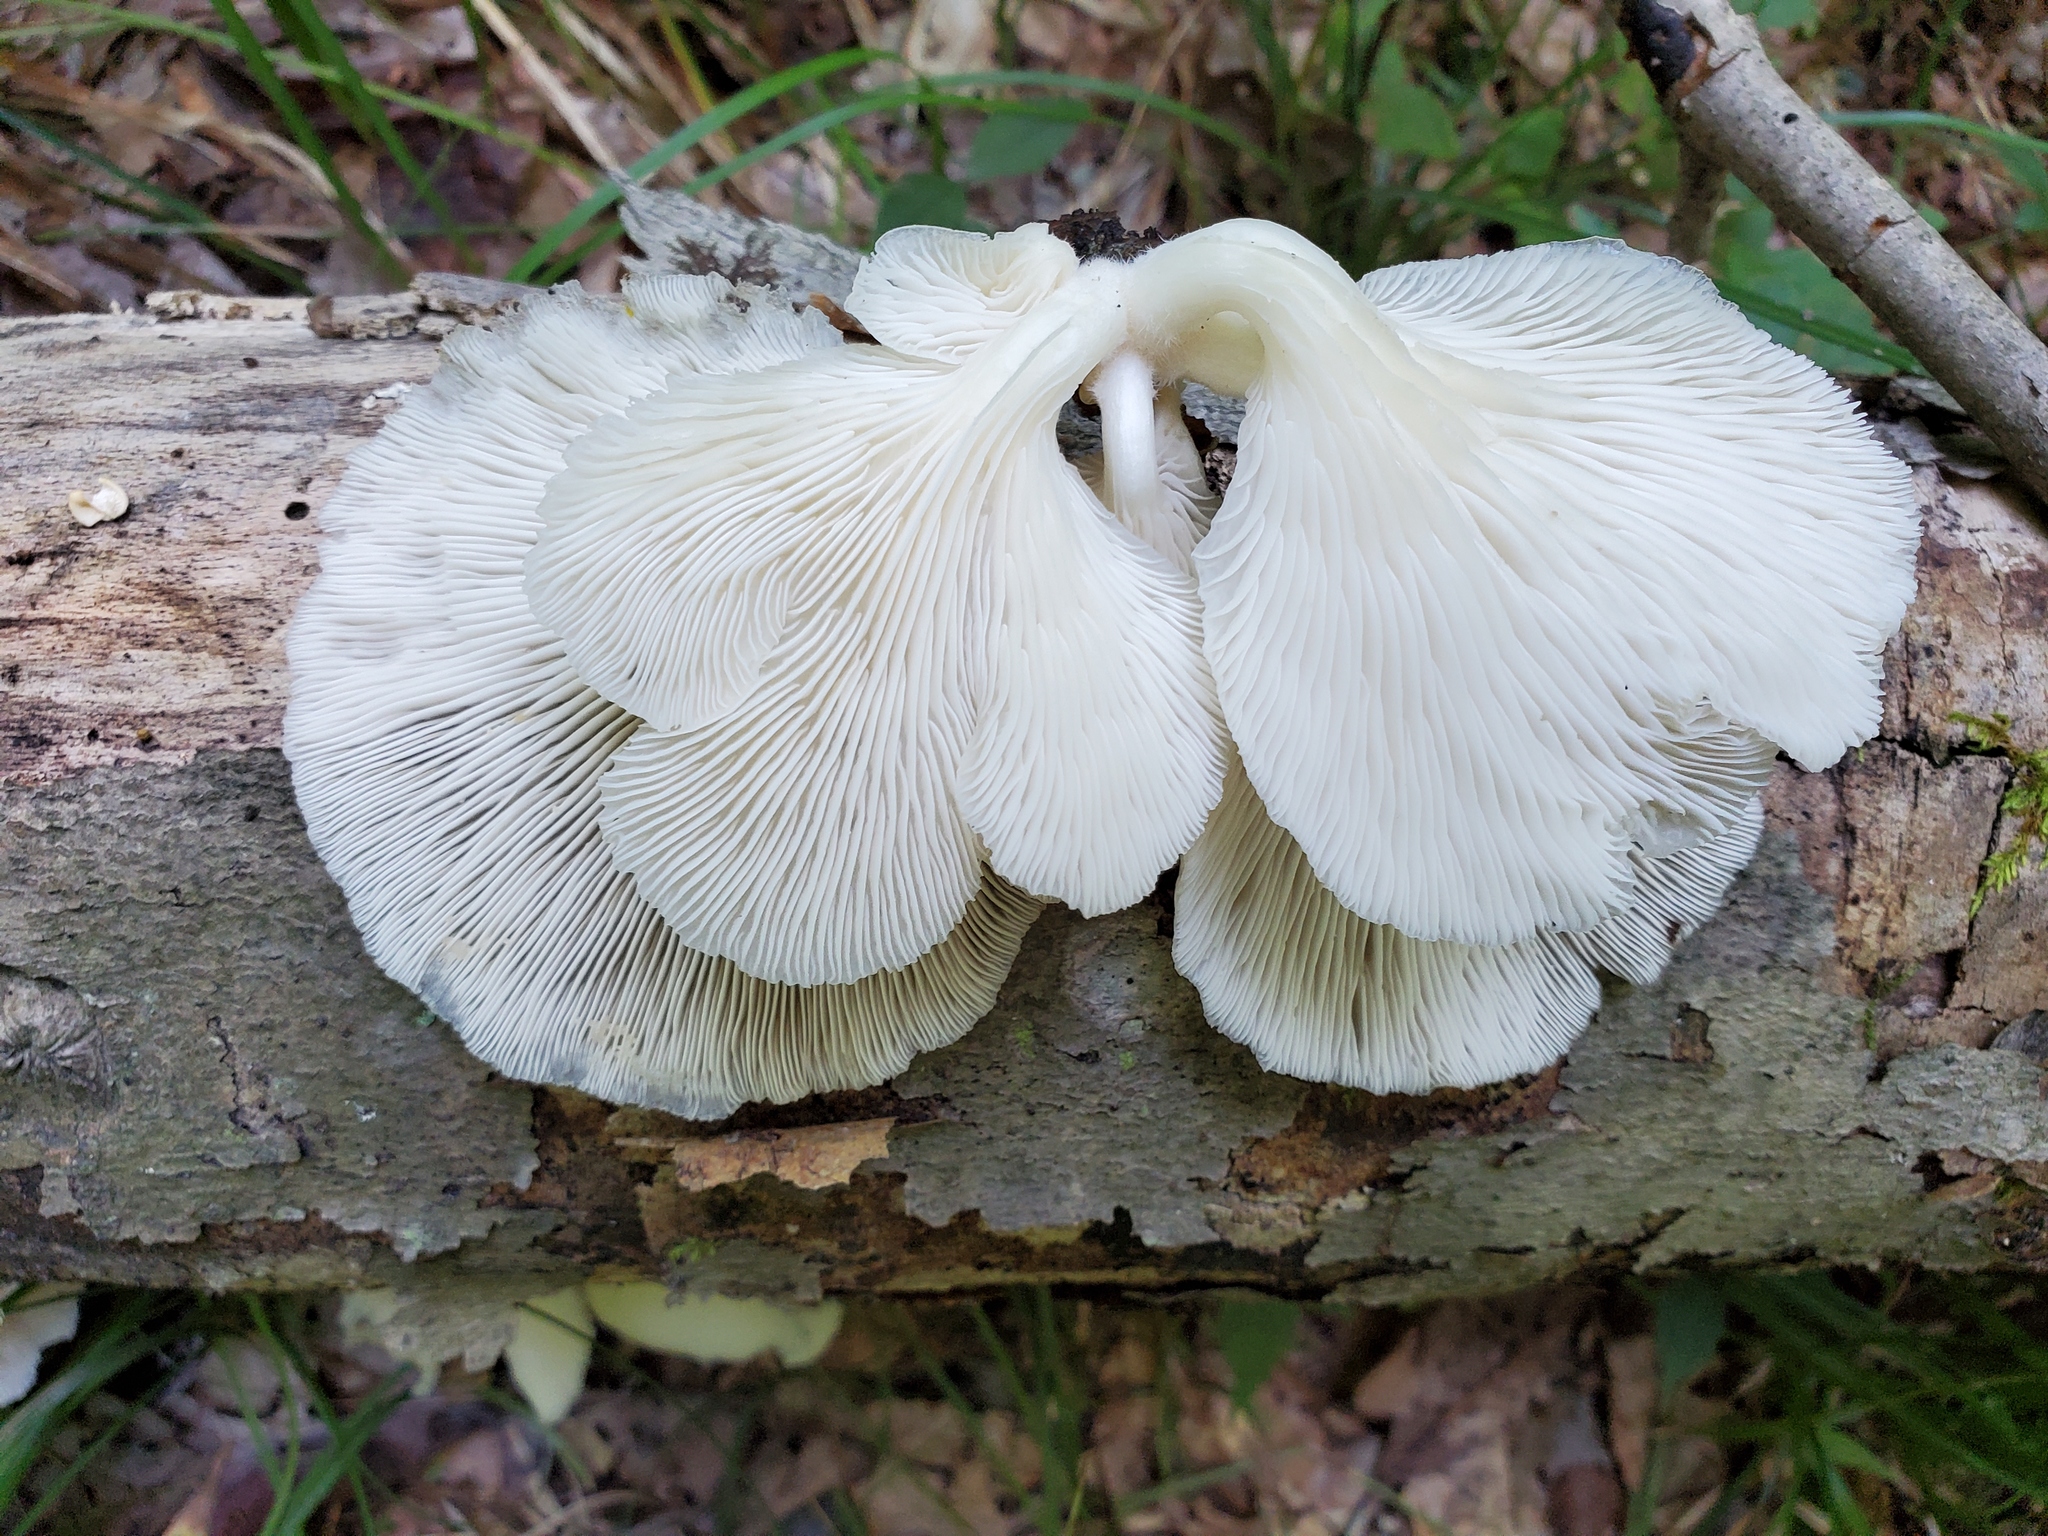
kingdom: Fungi
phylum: Basidiomycota
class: Agaricomycetes
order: Agaricales
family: Pleurotaceae
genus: Pleurotus
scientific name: Pleurotus pulmonarius
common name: Pale oyster
